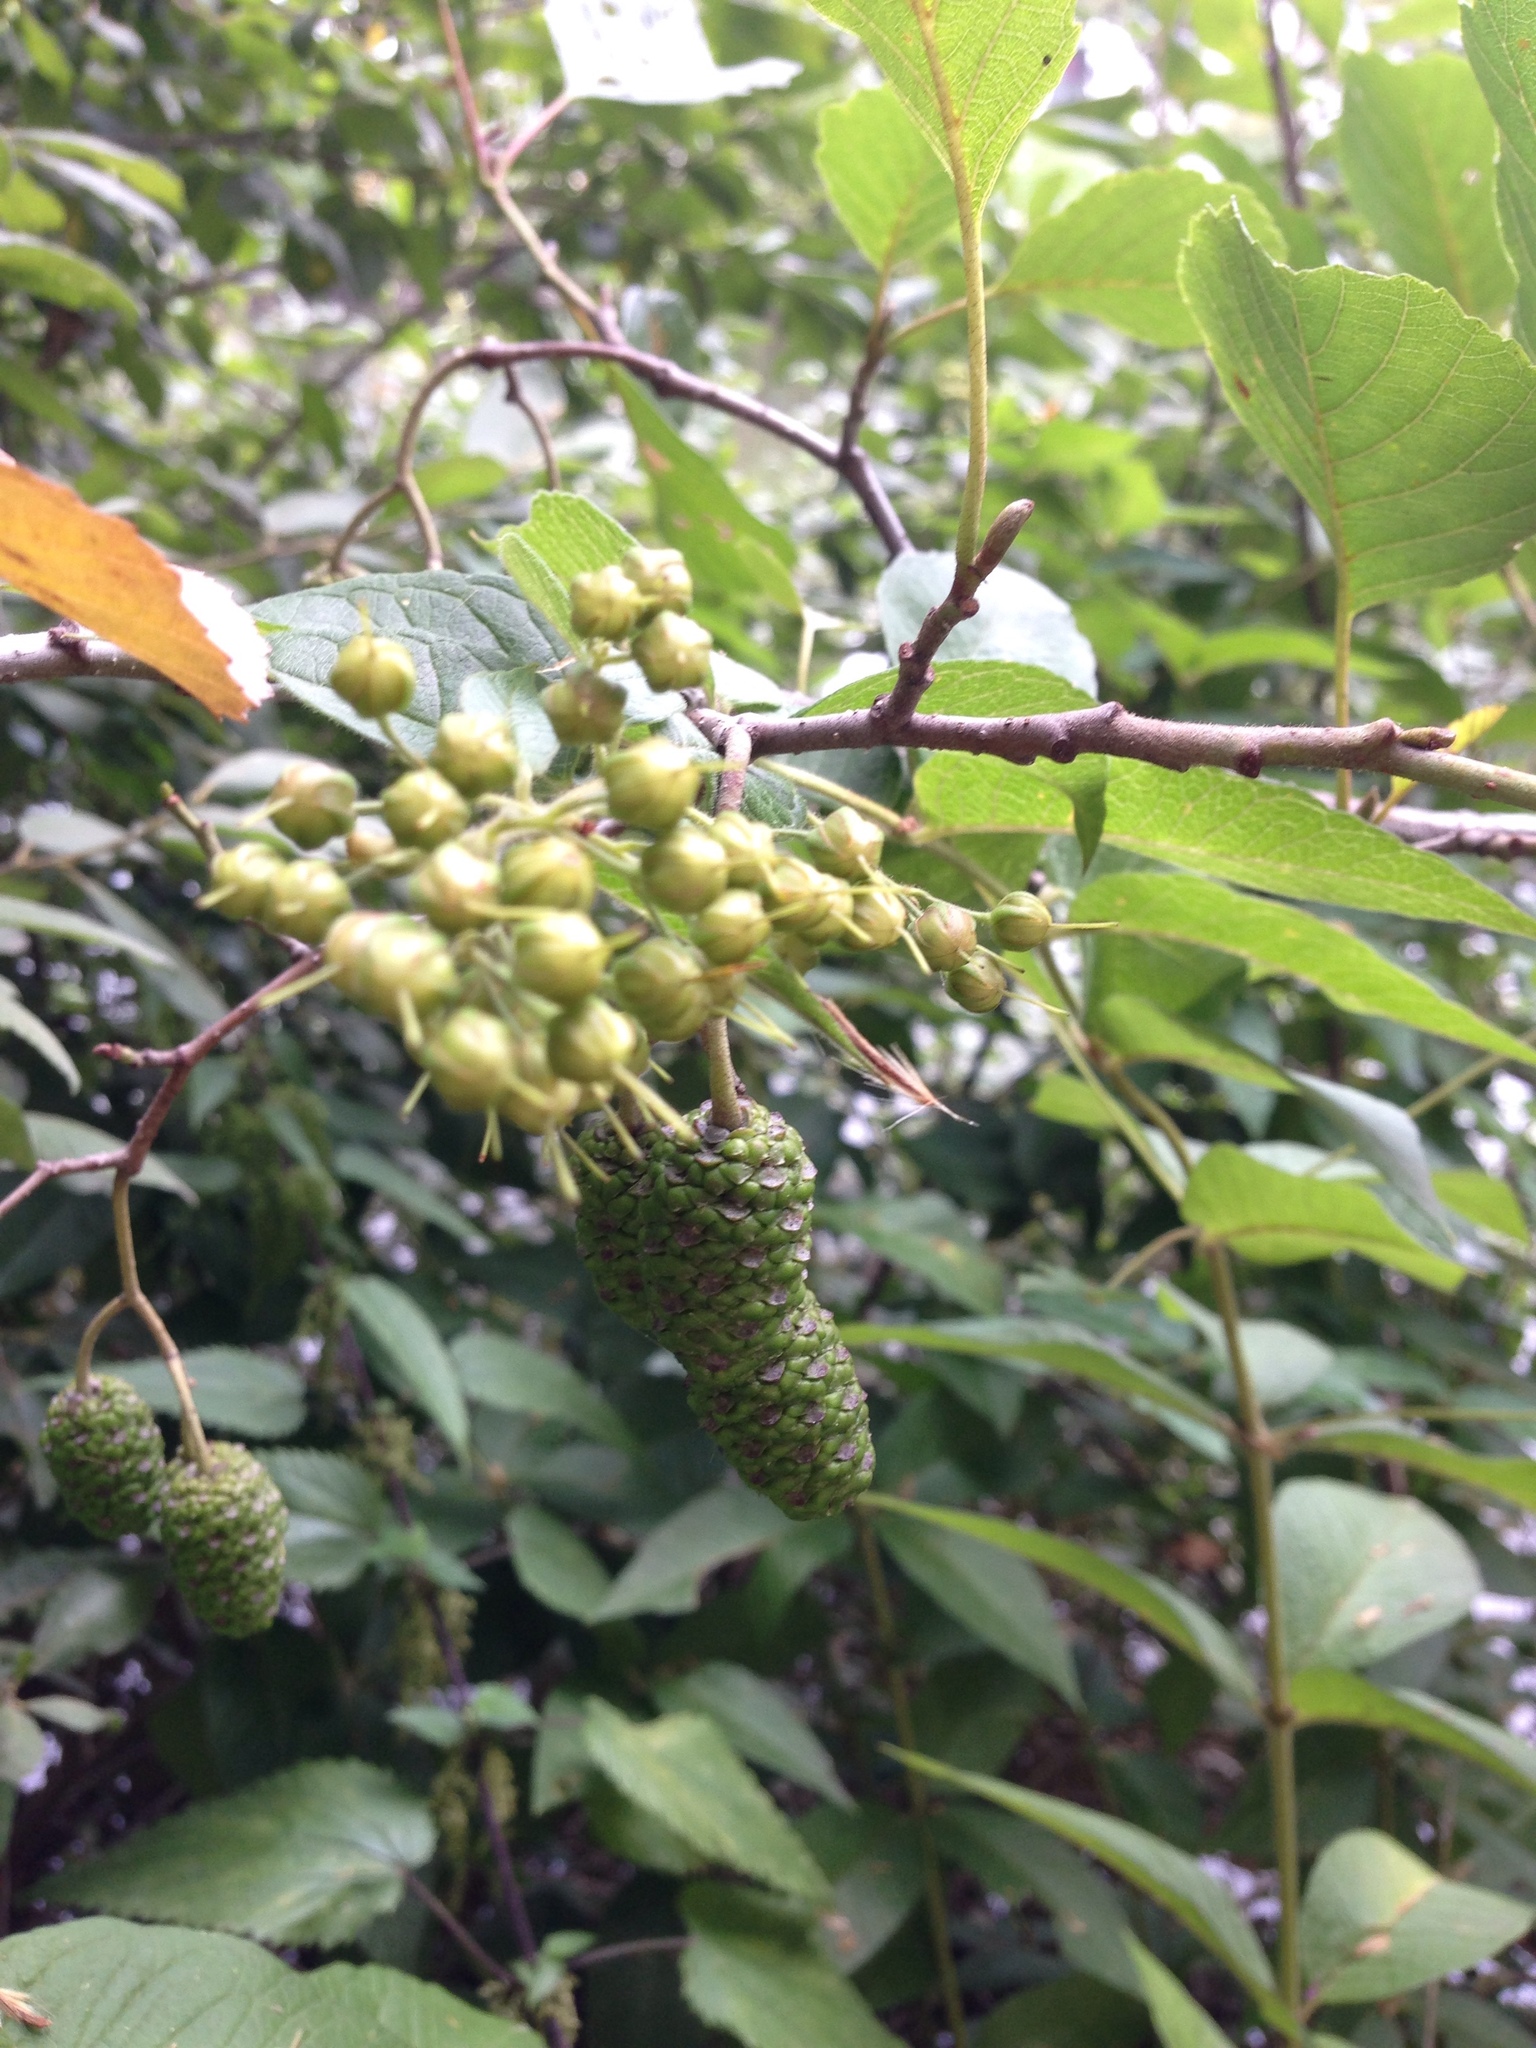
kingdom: Plantae
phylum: Tracheophyta
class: Magnoliopsida
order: Fagales
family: Betulaceae
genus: Alnus
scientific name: Alnus glutinosa
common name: Black alder
